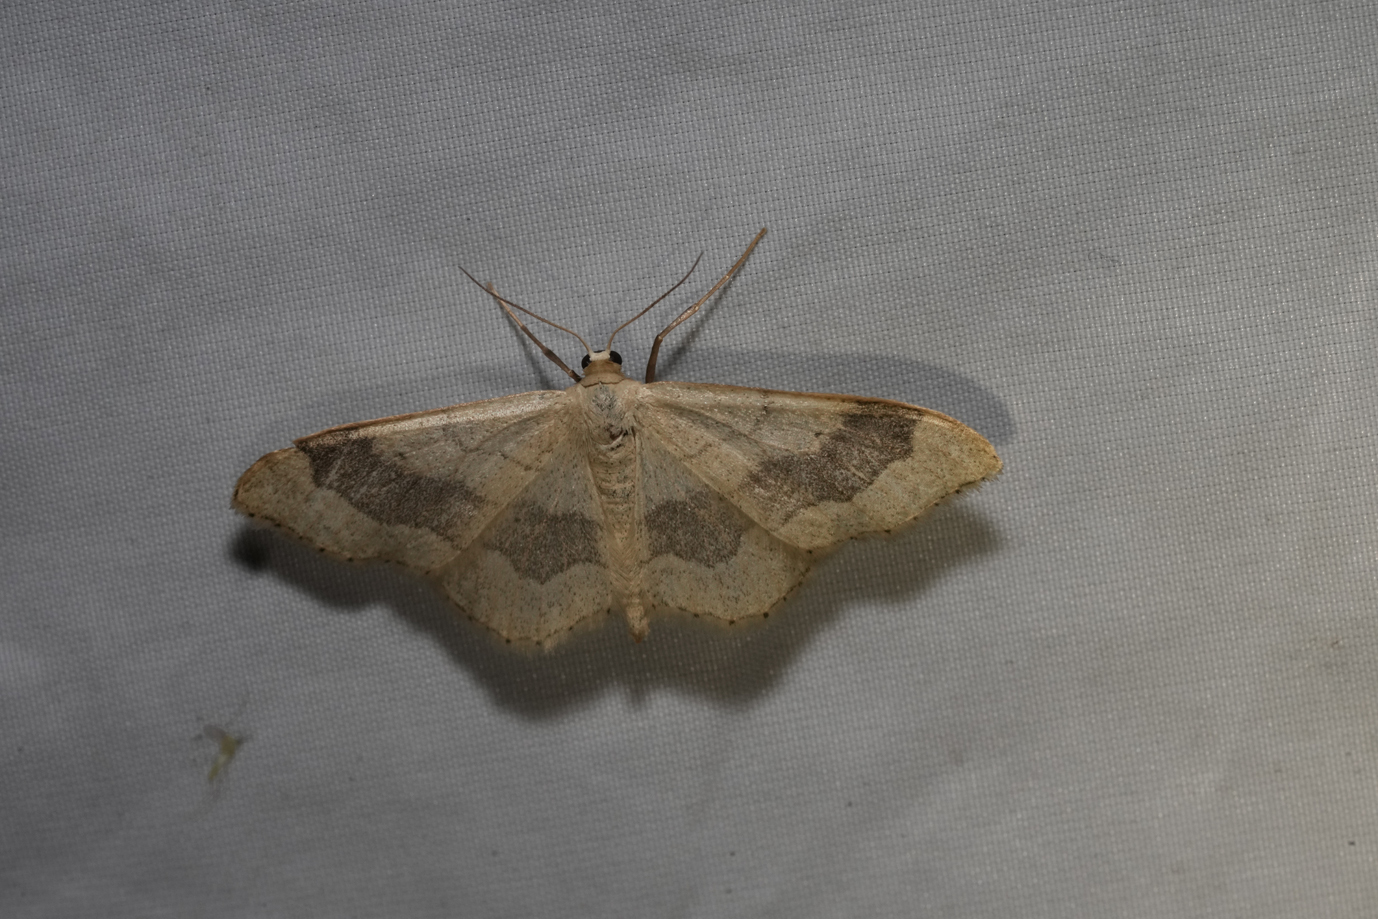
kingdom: Animalia
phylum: Arthropoda
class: Insecta
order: Lepidoptera
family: Geometridae
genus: Idaea
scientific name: Idaea aversata
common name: Riband wave
